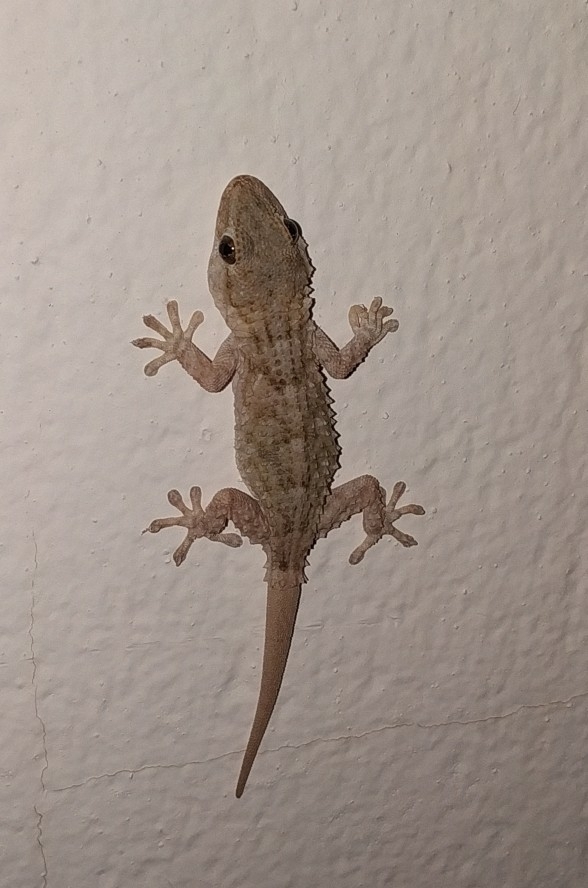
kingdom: Animalia
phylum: Chordata
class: Squamata
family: Phyllodactylidae
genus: Tarentola
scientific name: Tarentola mauritanica
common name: Moorish gecko
